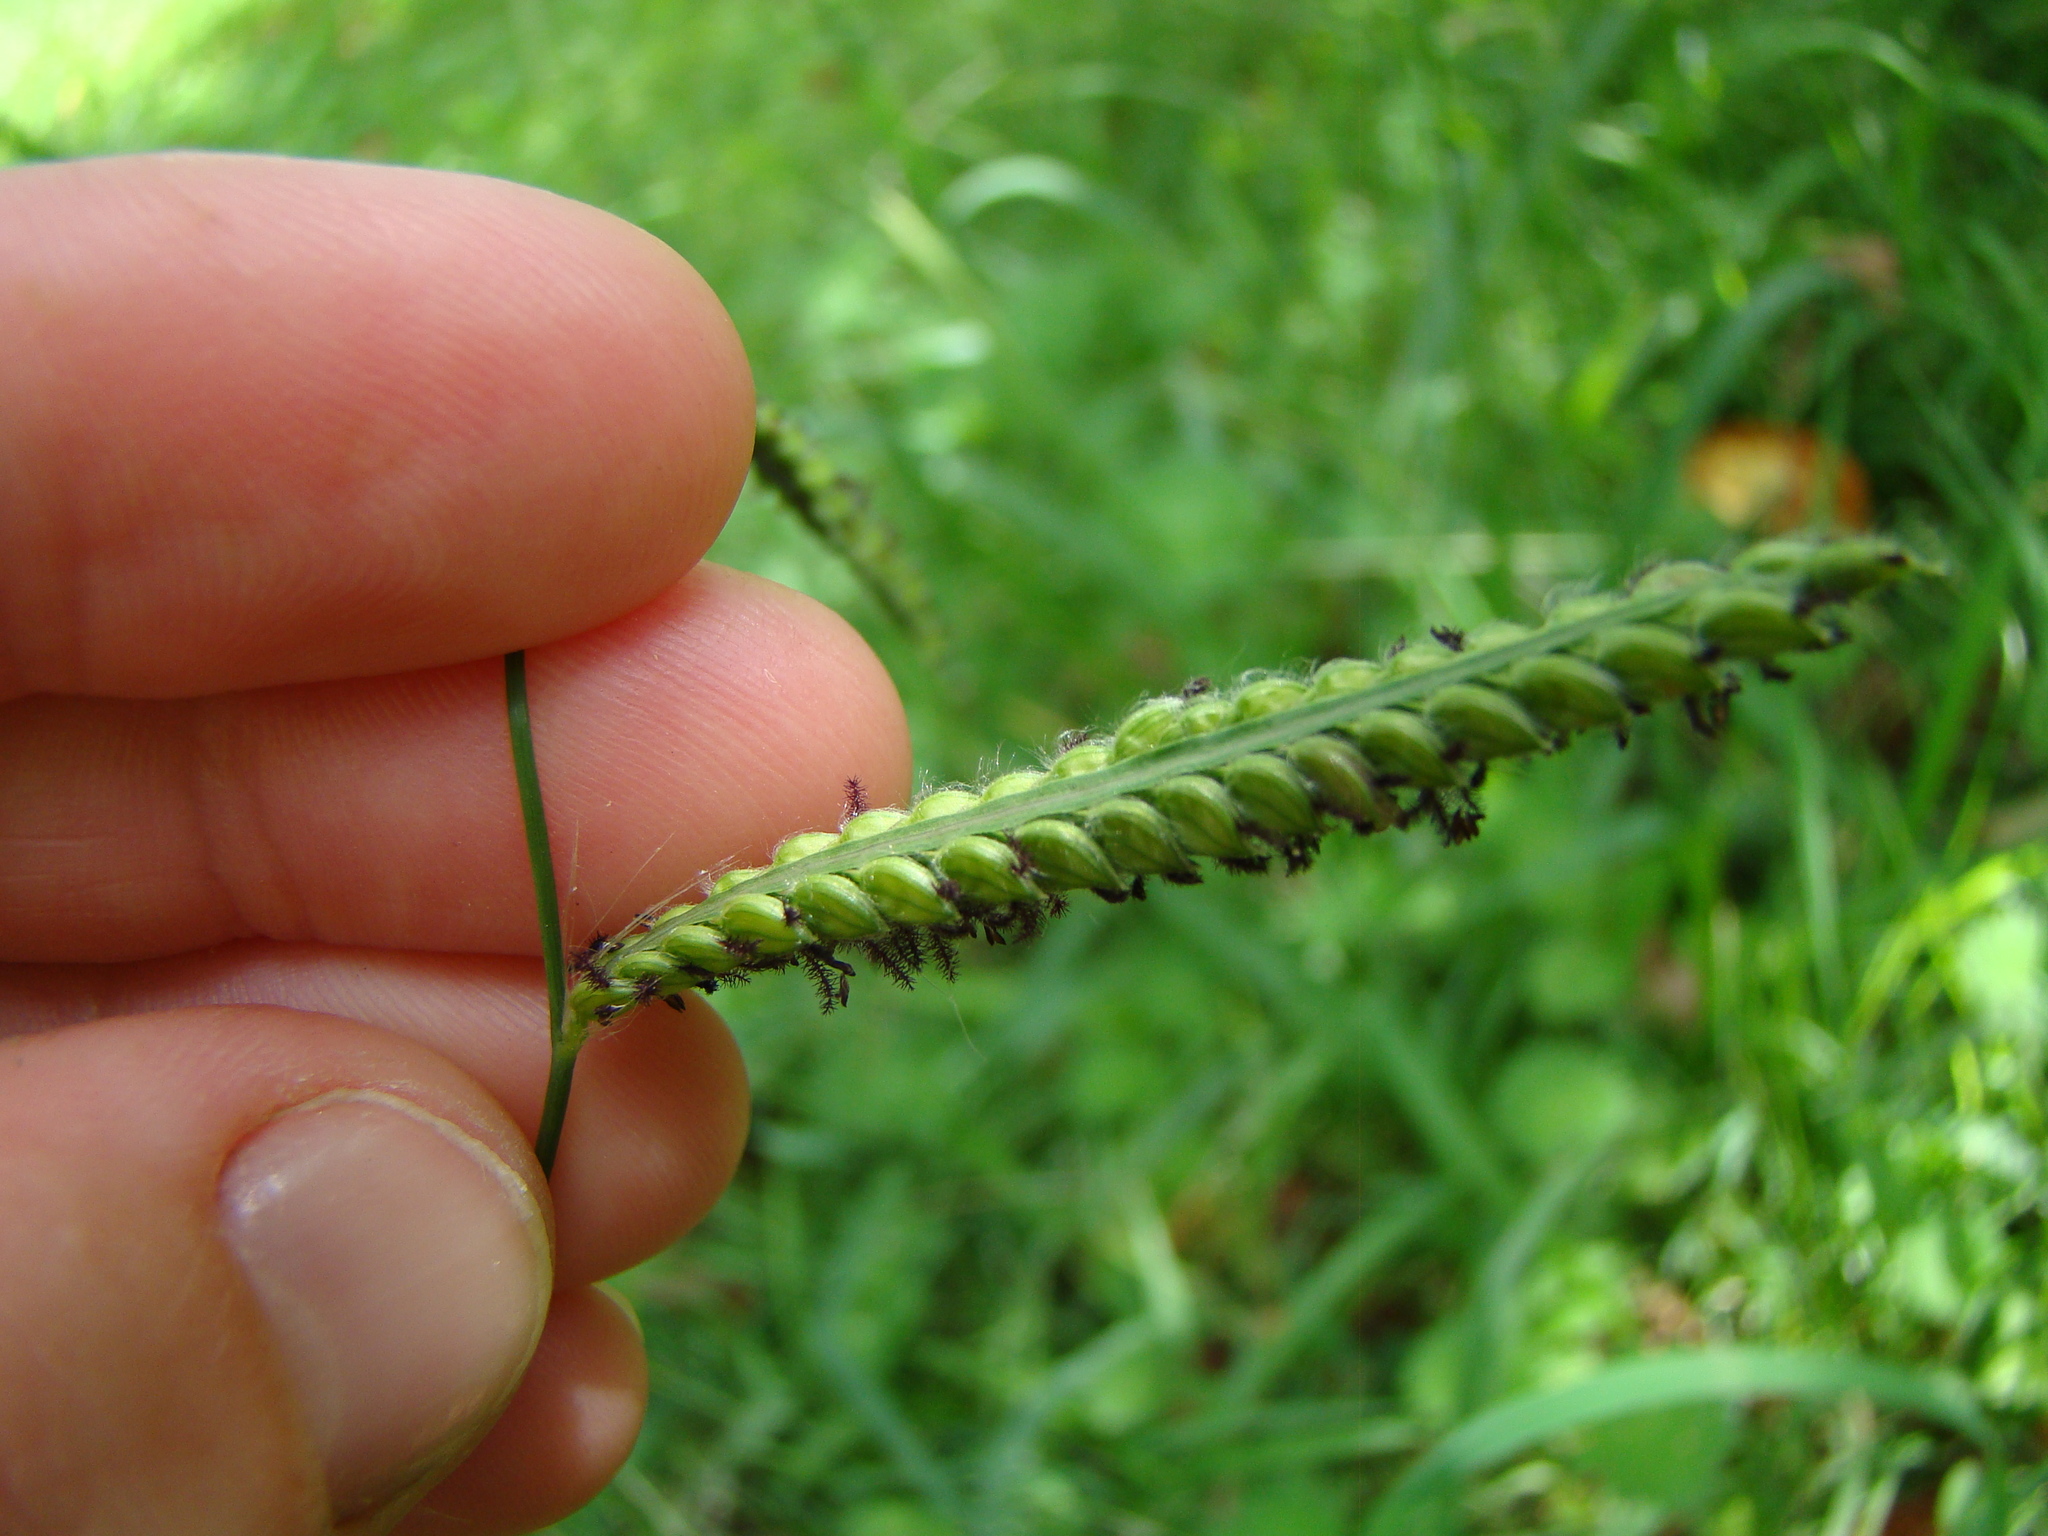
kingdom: Plantae
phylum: Tracheophyta
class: Liliopsida
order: Poales
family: Poaceae
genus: Paspalum
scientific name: Paspalum dilatatum
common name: Dallisgrass
